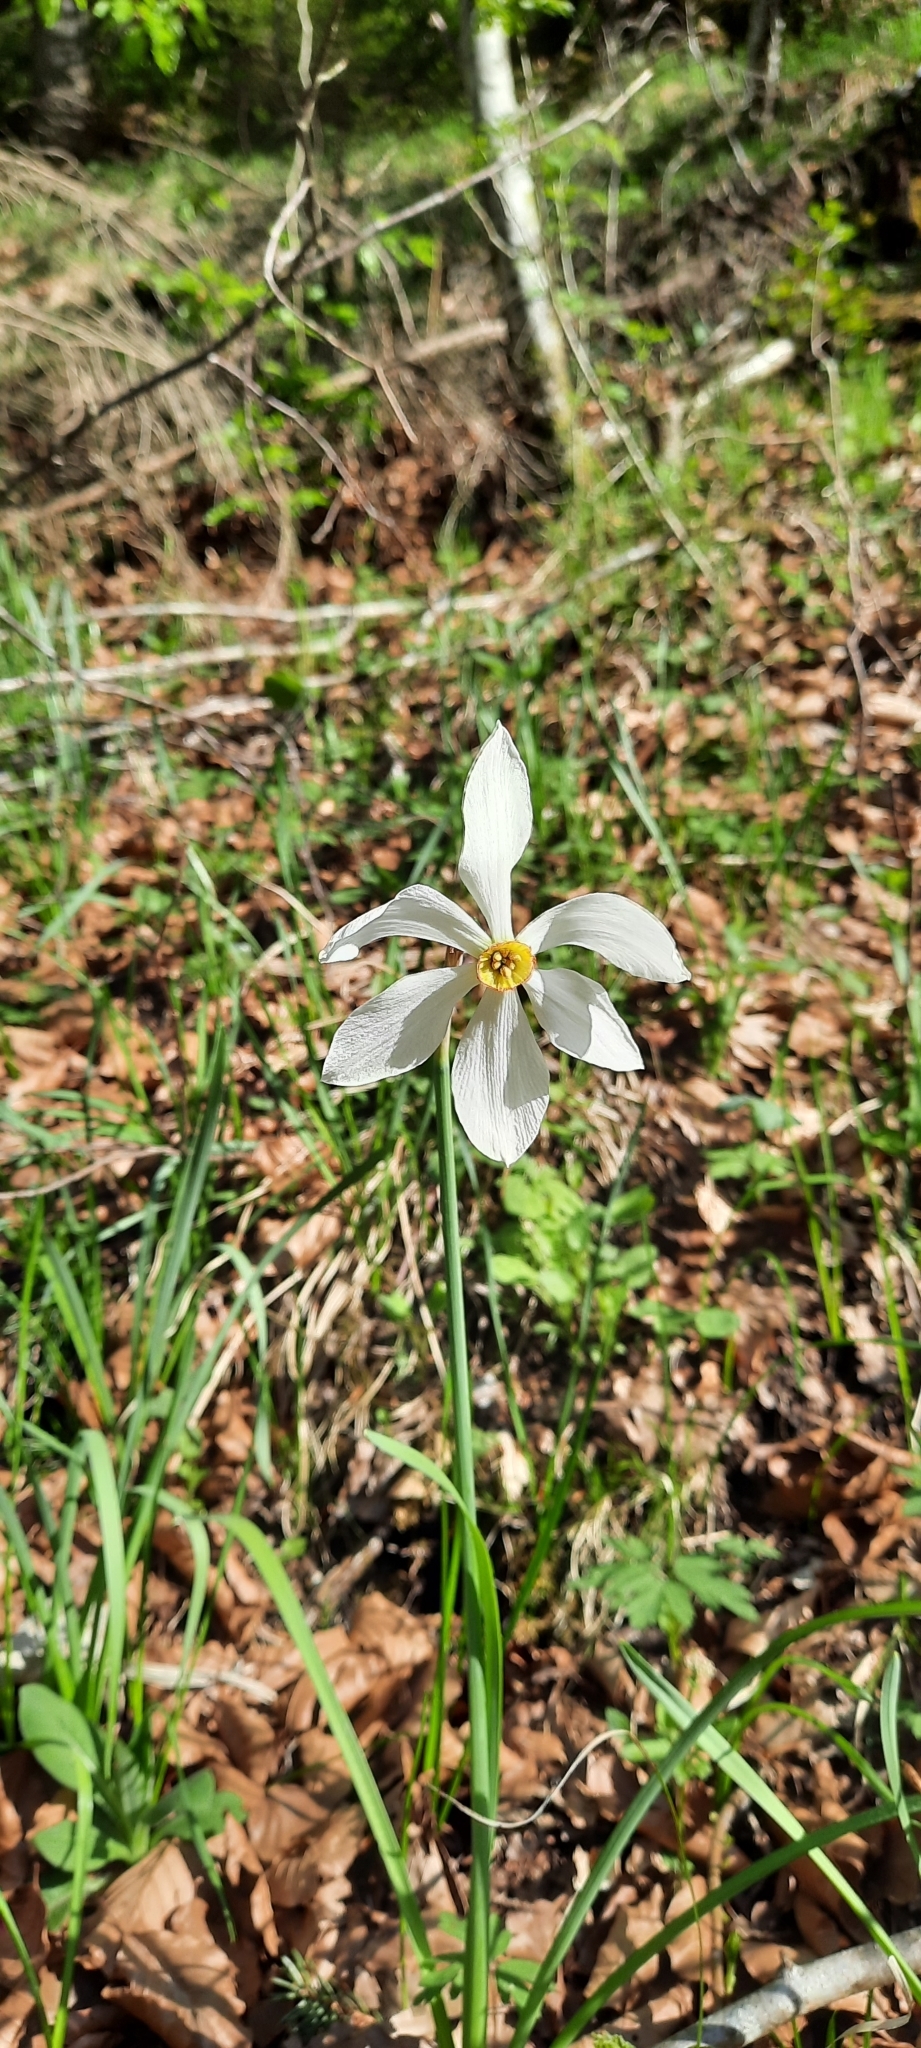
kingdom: Plantae
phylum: Tracheophyta
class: Liliopsida
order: Asparagales
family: Amaryllidaceae
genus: Narcissus
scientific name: Narcissus poeticus
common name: Pheasant's-eye daffodil
